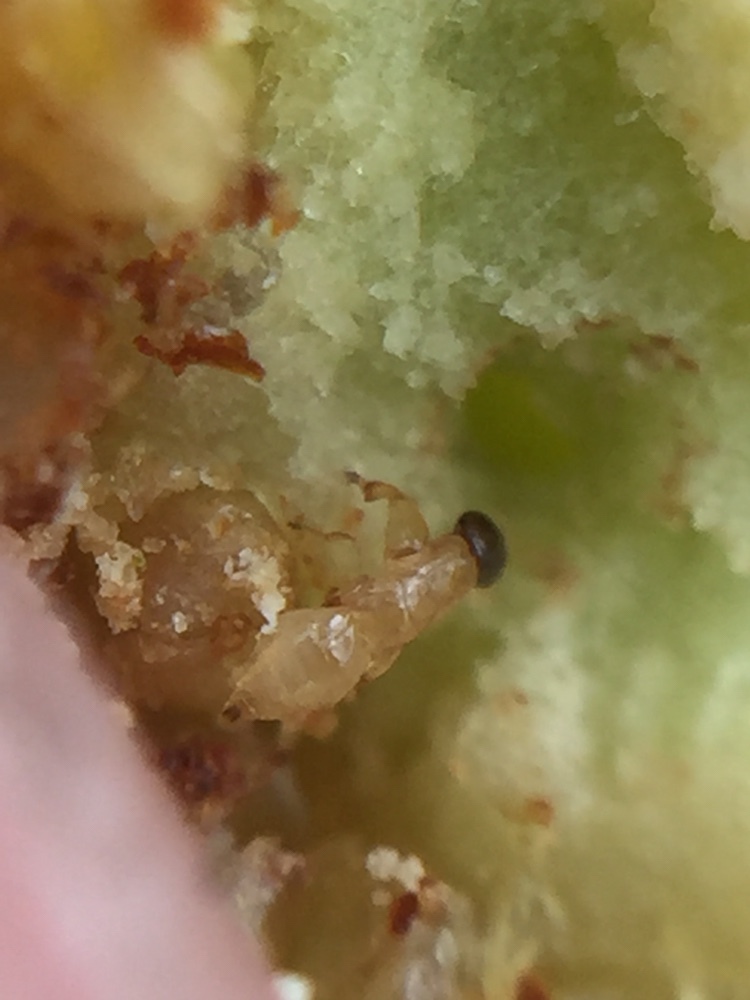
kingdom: Animalia
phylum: Arthropoda
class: Insecta
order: Hymenoptera
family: Agaonidae
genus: Pleistodontes
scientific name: Pleistodontes imperialis
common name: Fig wasp
